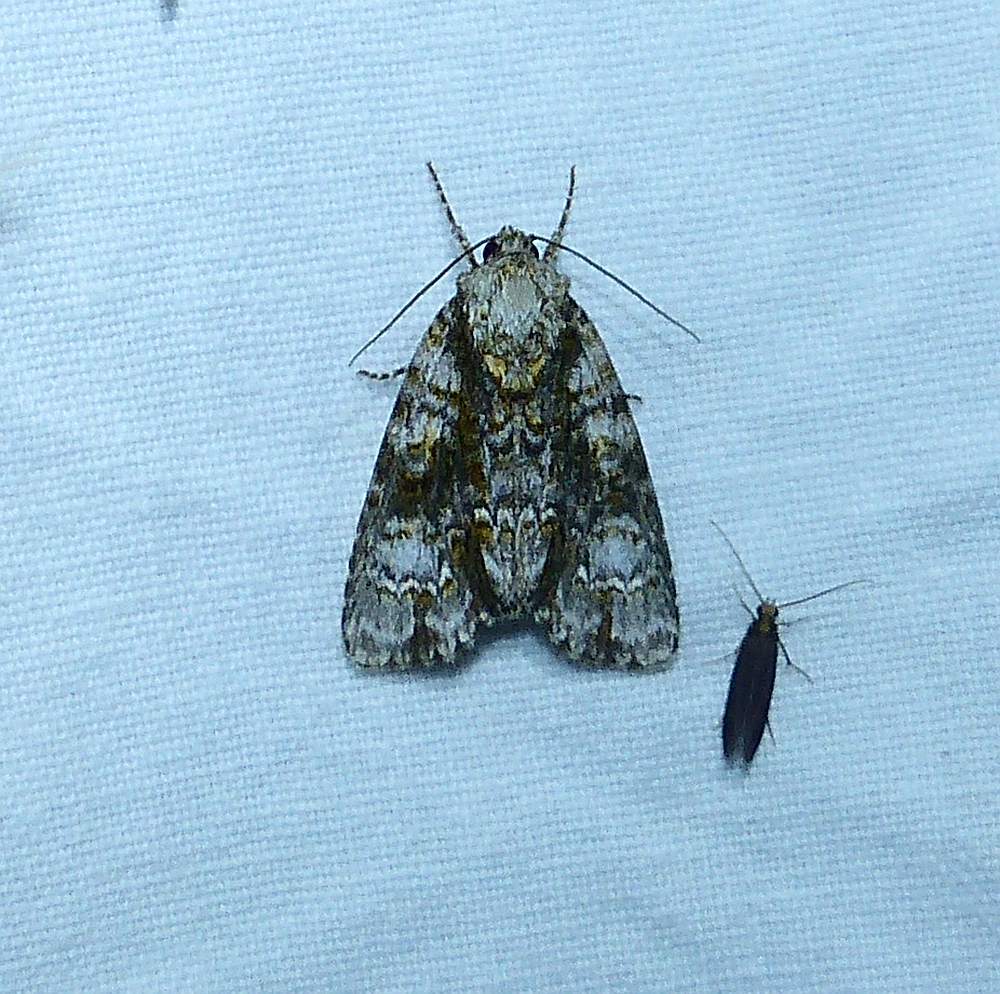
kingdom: Animalia
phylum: Arthropoda
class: Insecta
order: Lepidoptera
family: Noctuidae
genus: Acronicta
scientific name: Acronicta superans
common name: Splendid dagger
